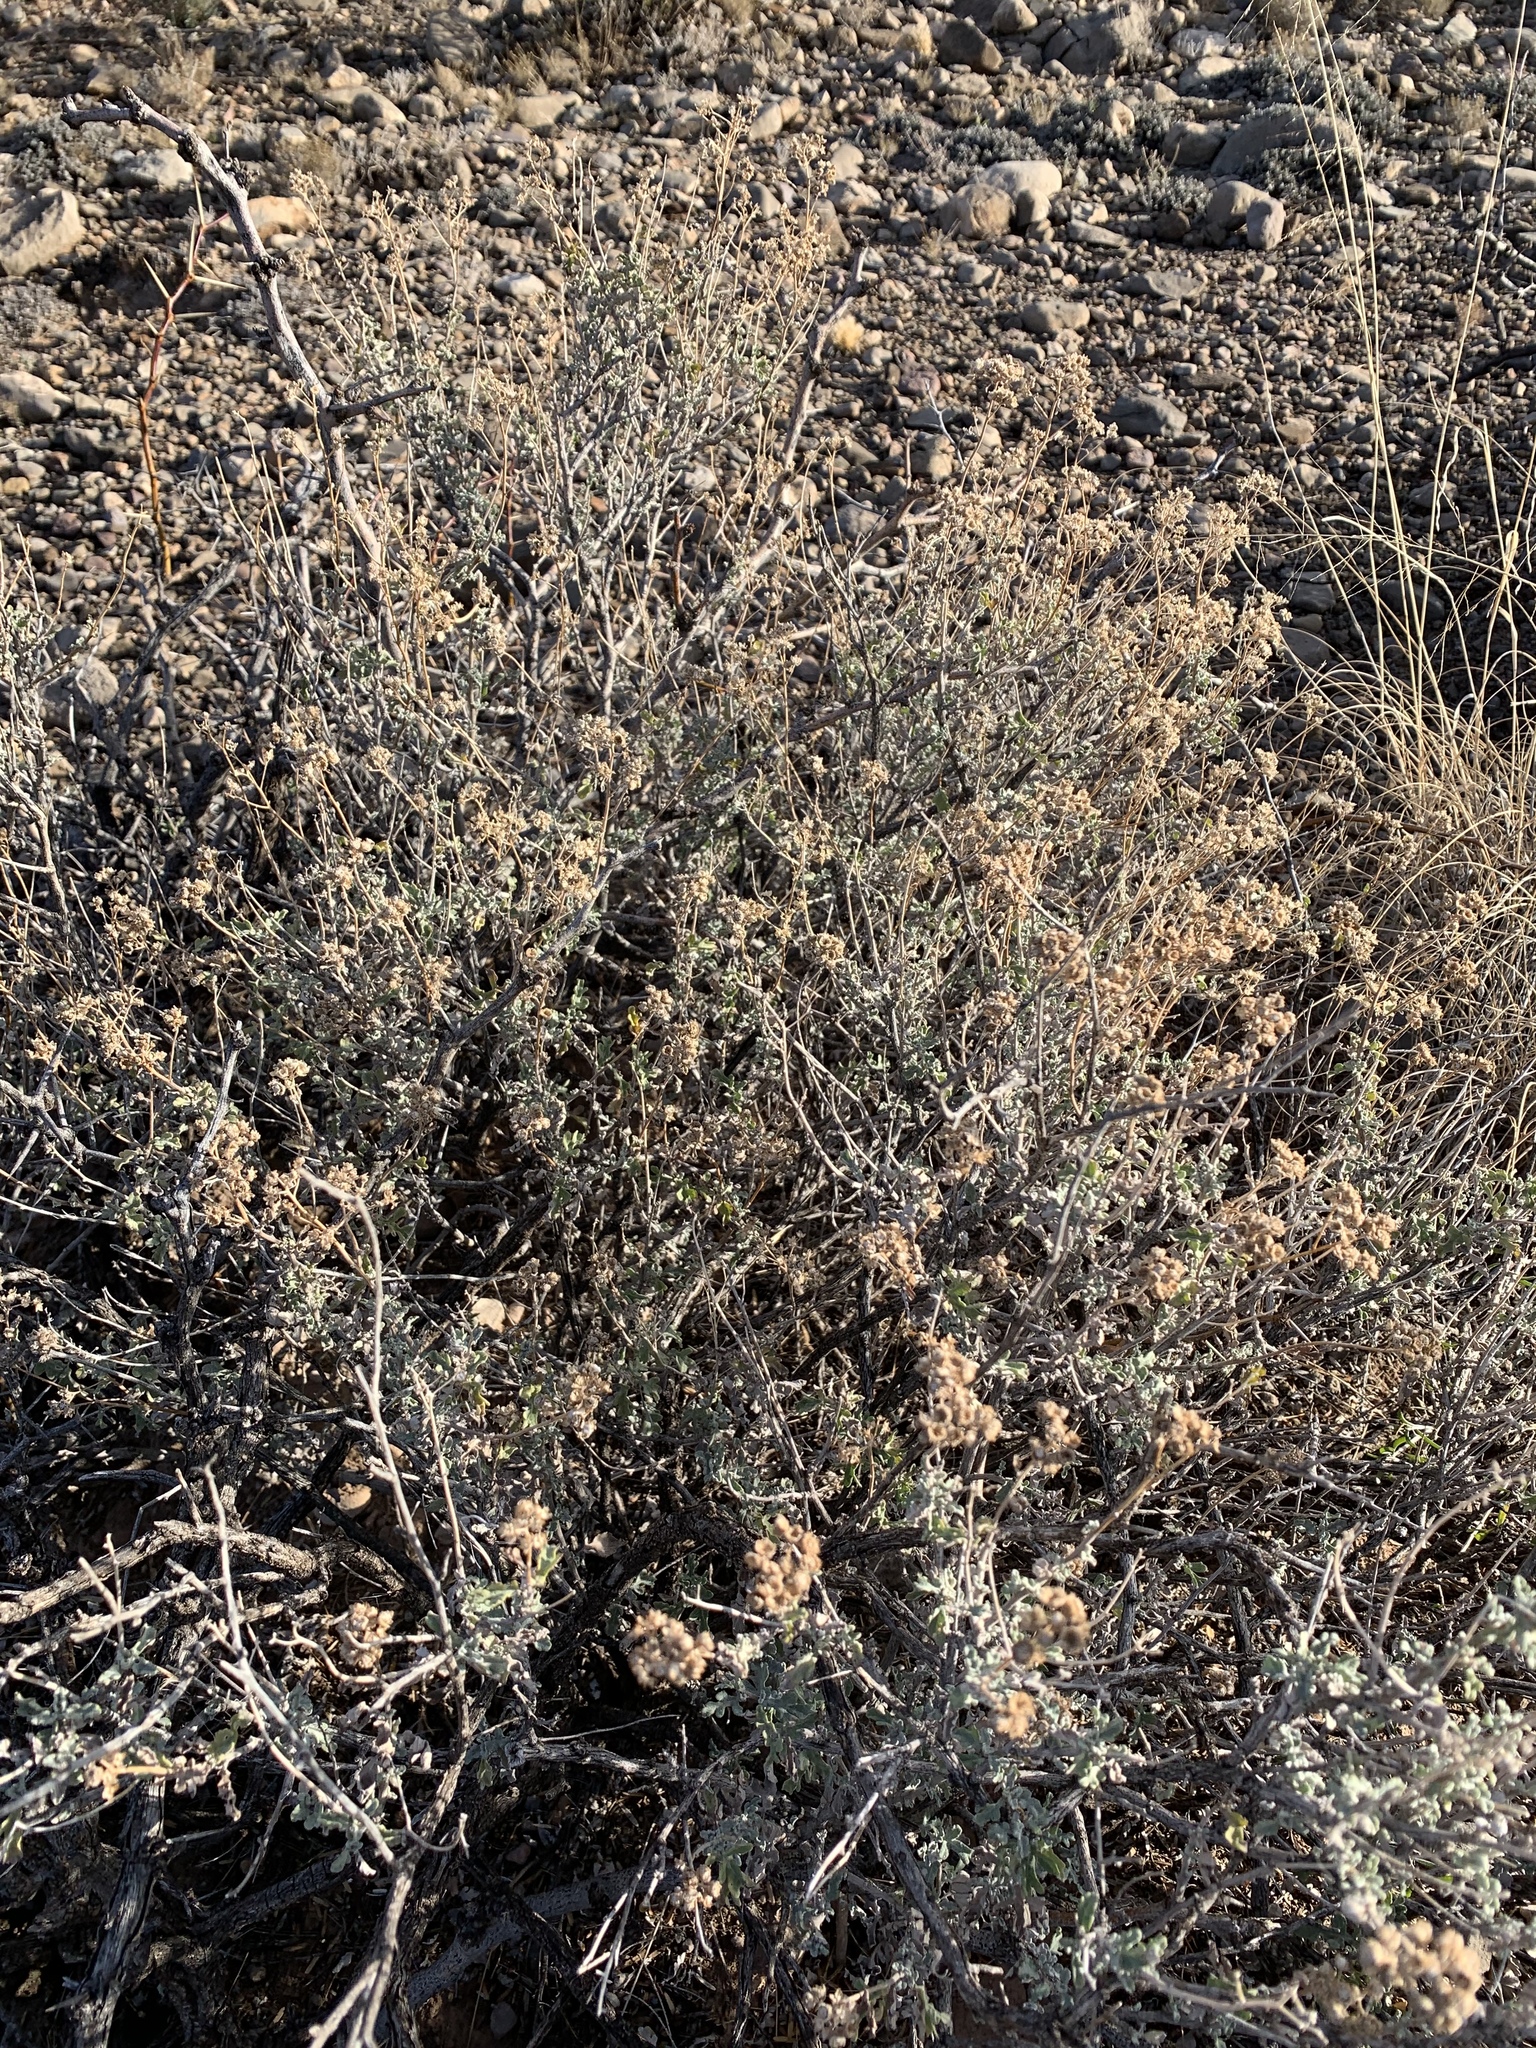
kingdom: Plantae
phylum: Tracheophyta
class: Magnoliopsida
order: Asterales
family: Asteraceae
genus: Parthenium
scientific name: Parthenium incanum
